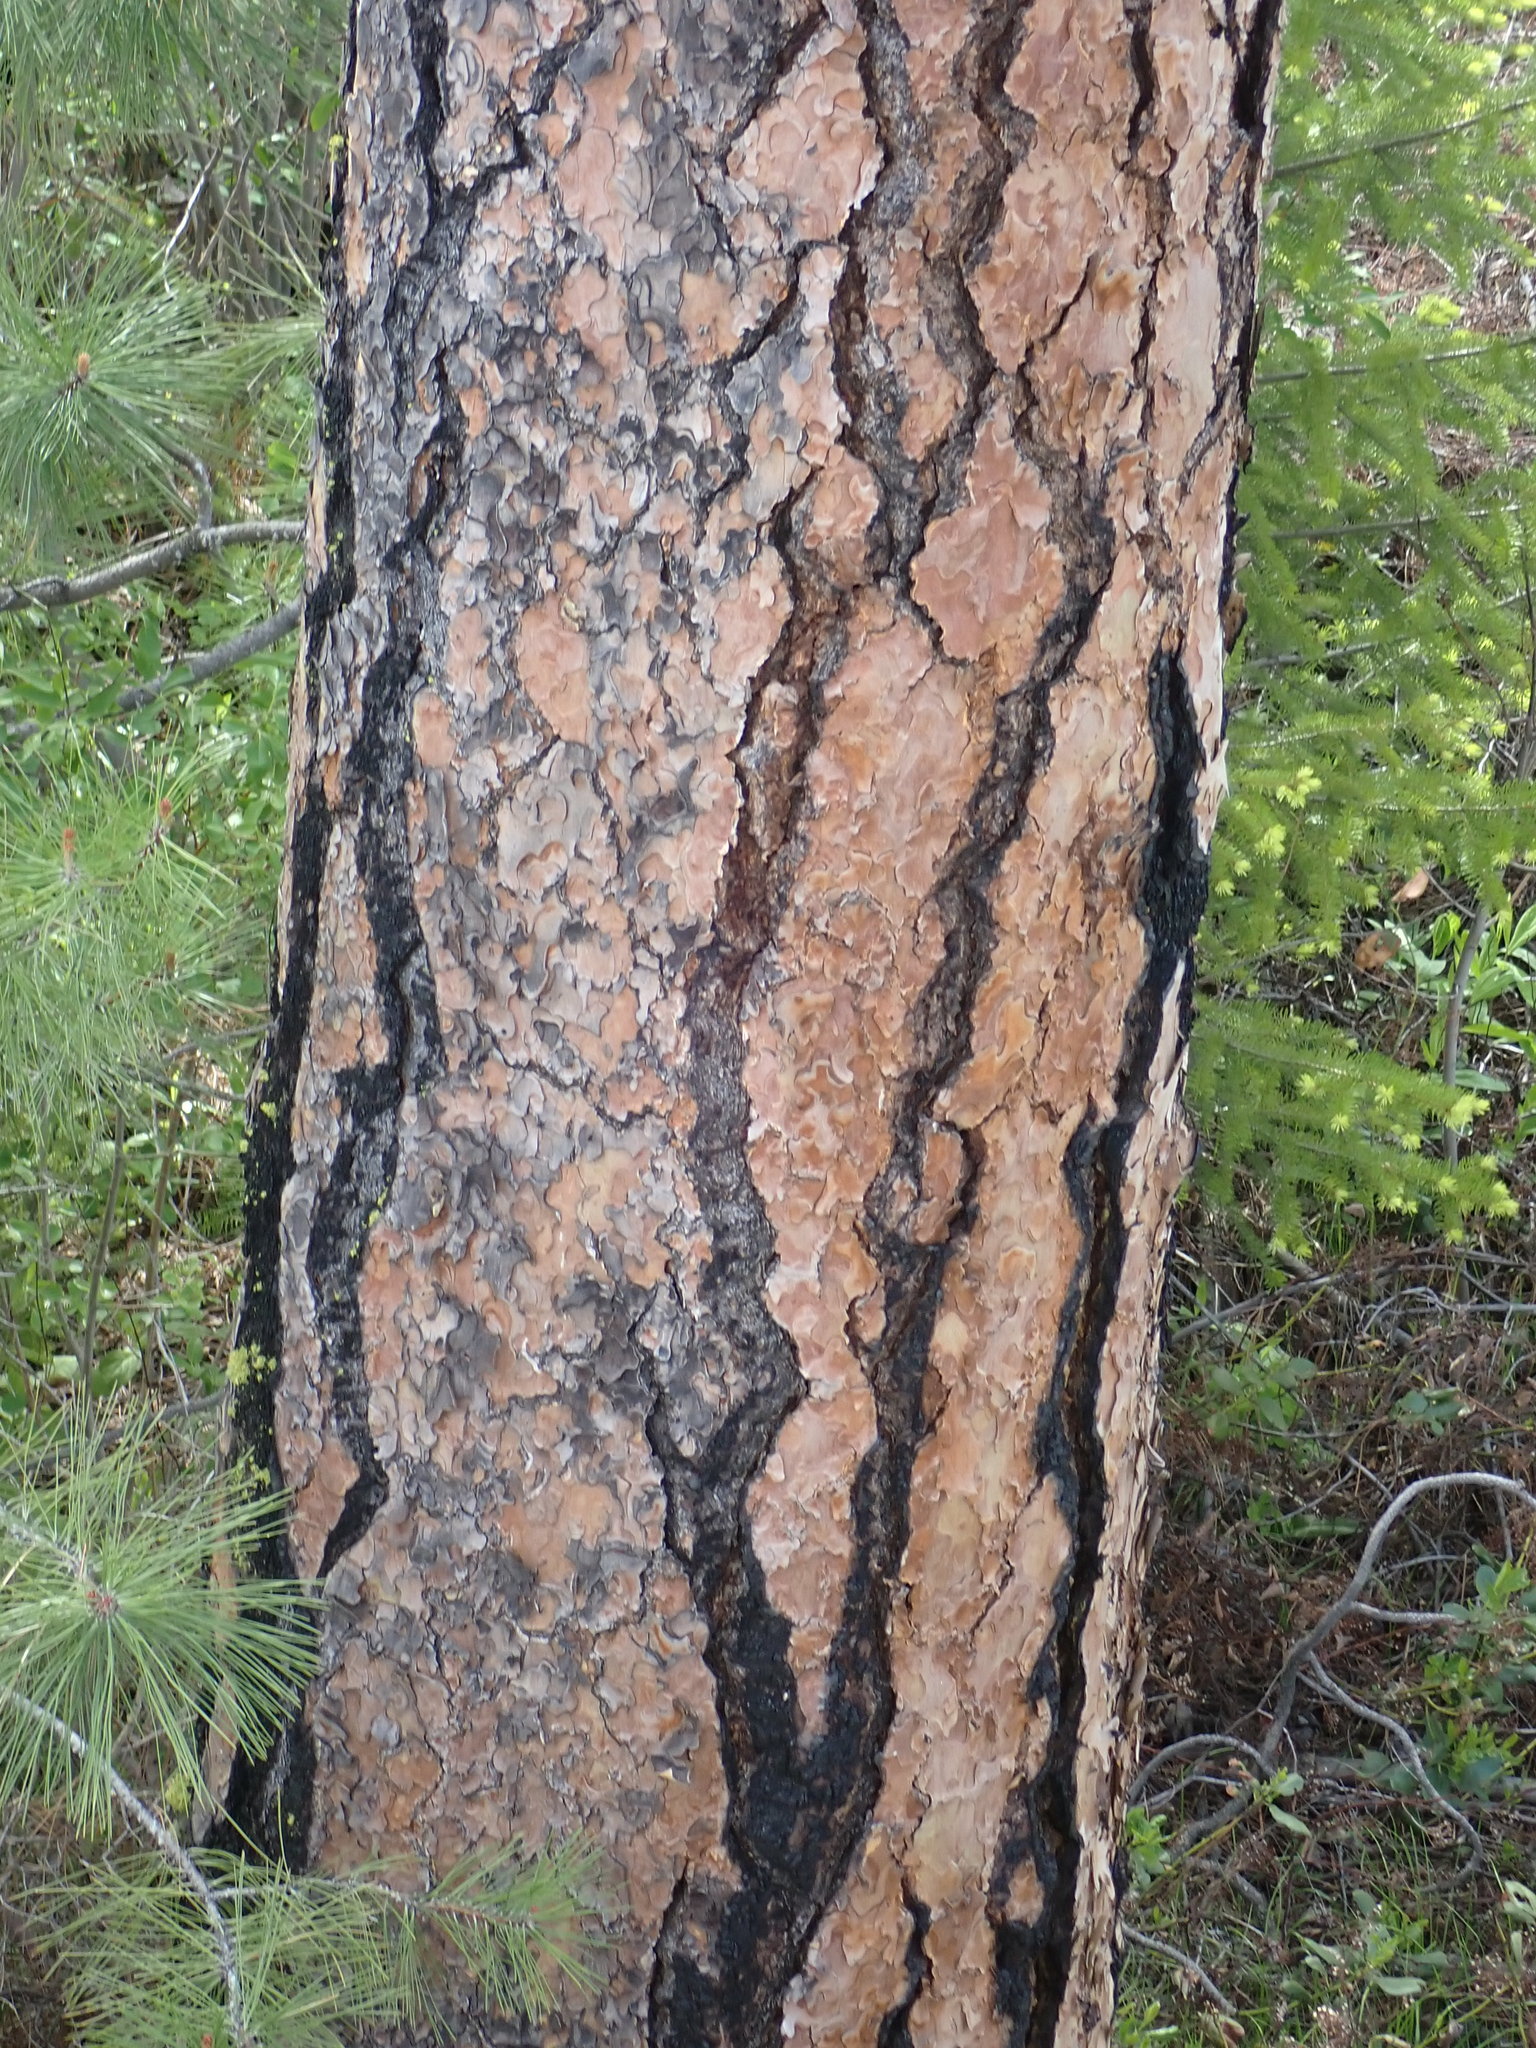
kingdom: Plantae
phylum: Tracheophyta
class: Pinopsida
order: Pinales
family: Pinaceae
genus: Pinus
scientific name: Pinus ponderosa
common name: Western yellow-pine
